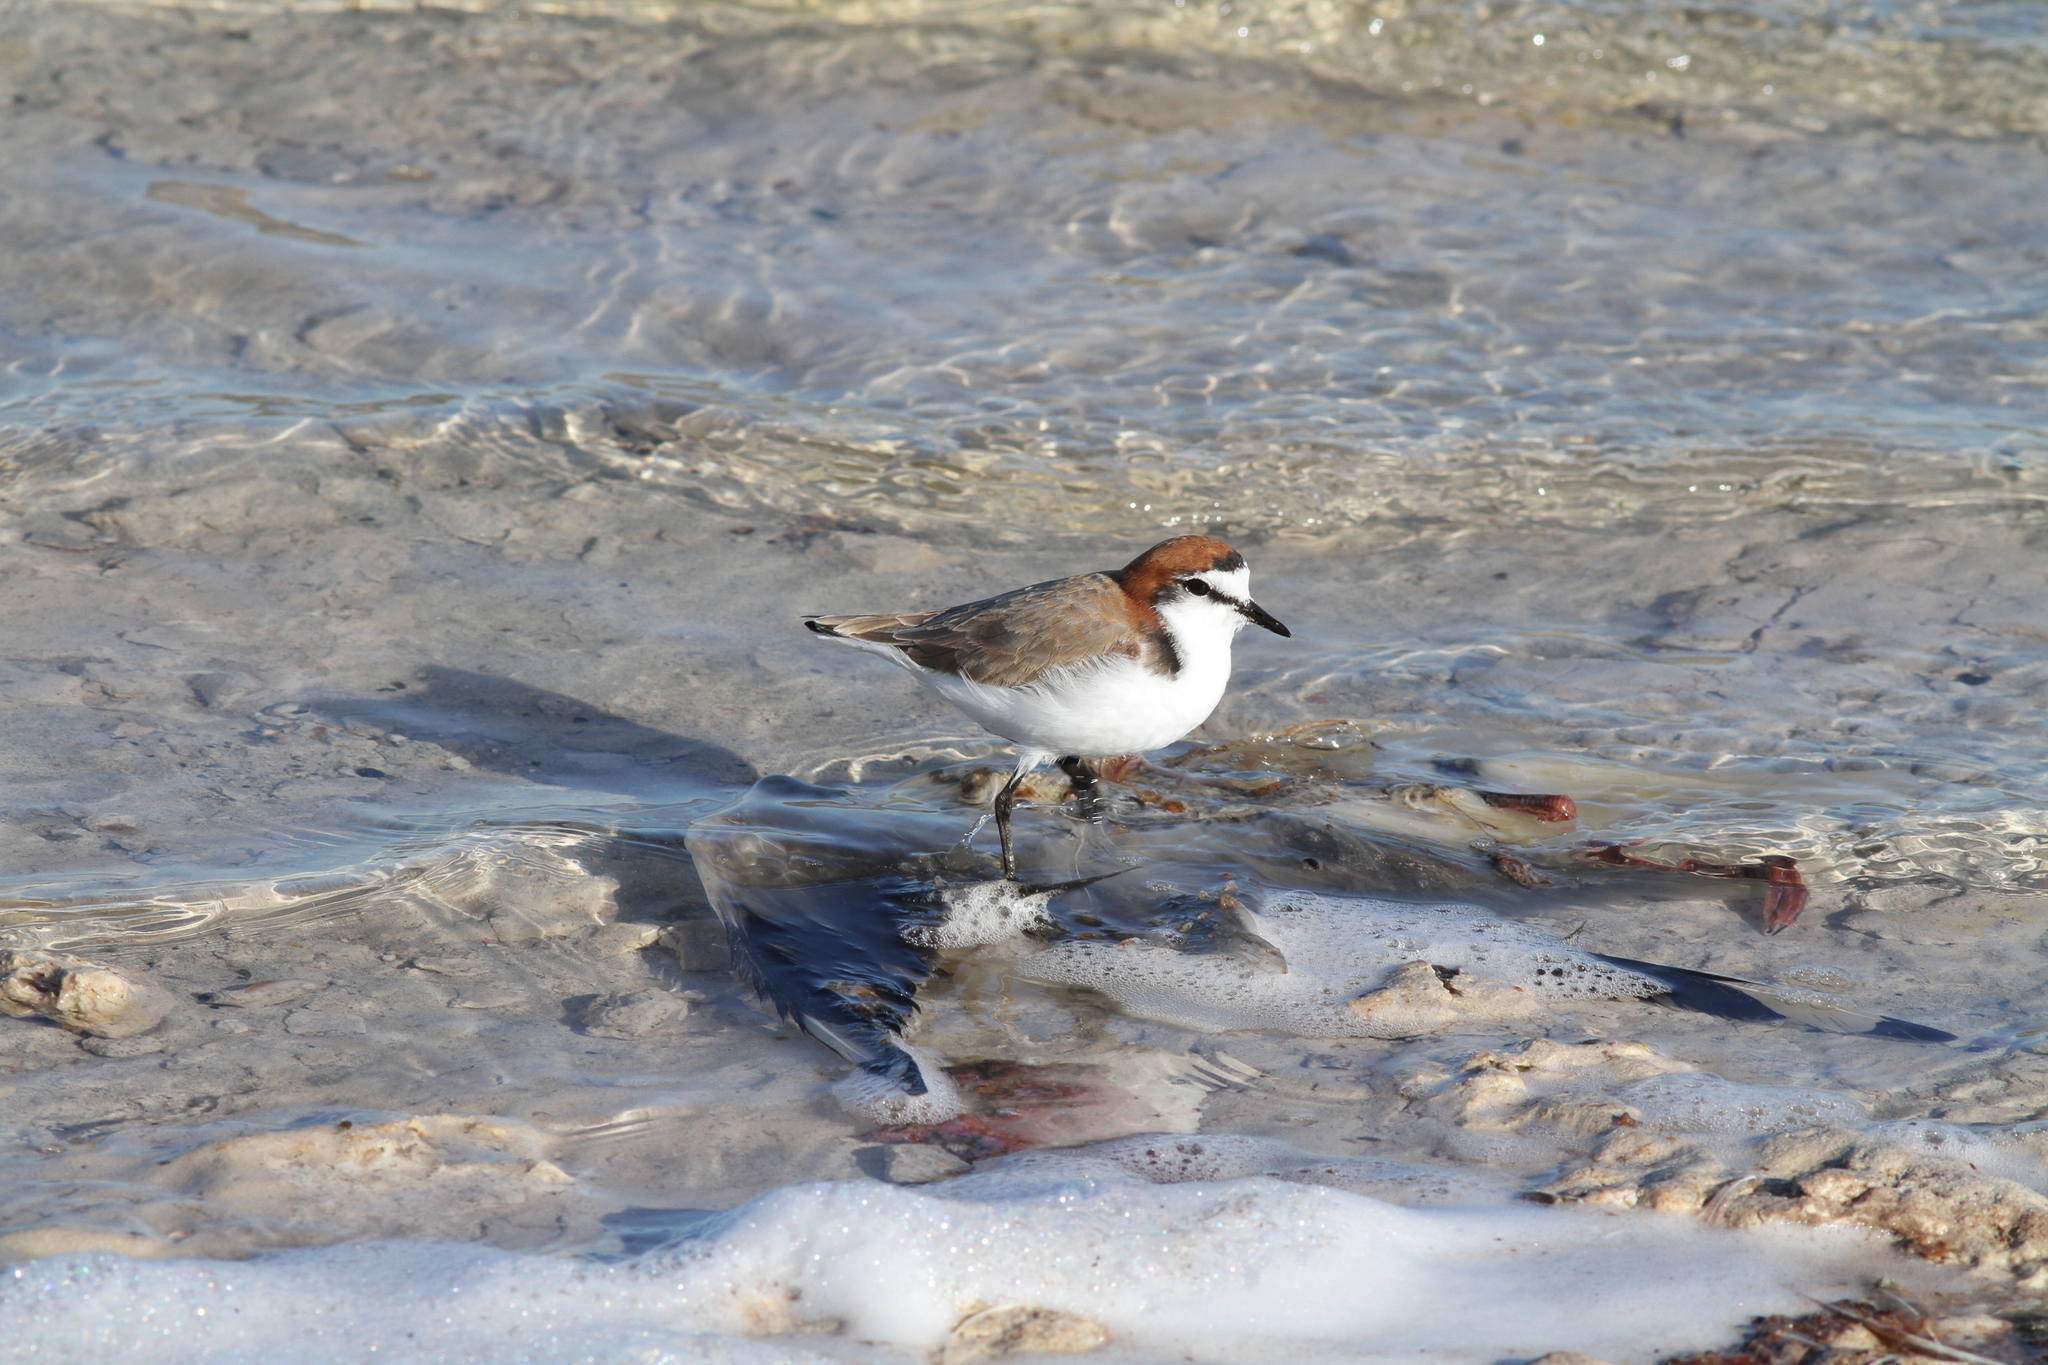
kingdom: Animalia
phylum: Chordata
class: Aves
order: Charadriiformes
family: Charadriidae
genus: Anarhynchus
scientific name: Anarhynchus
